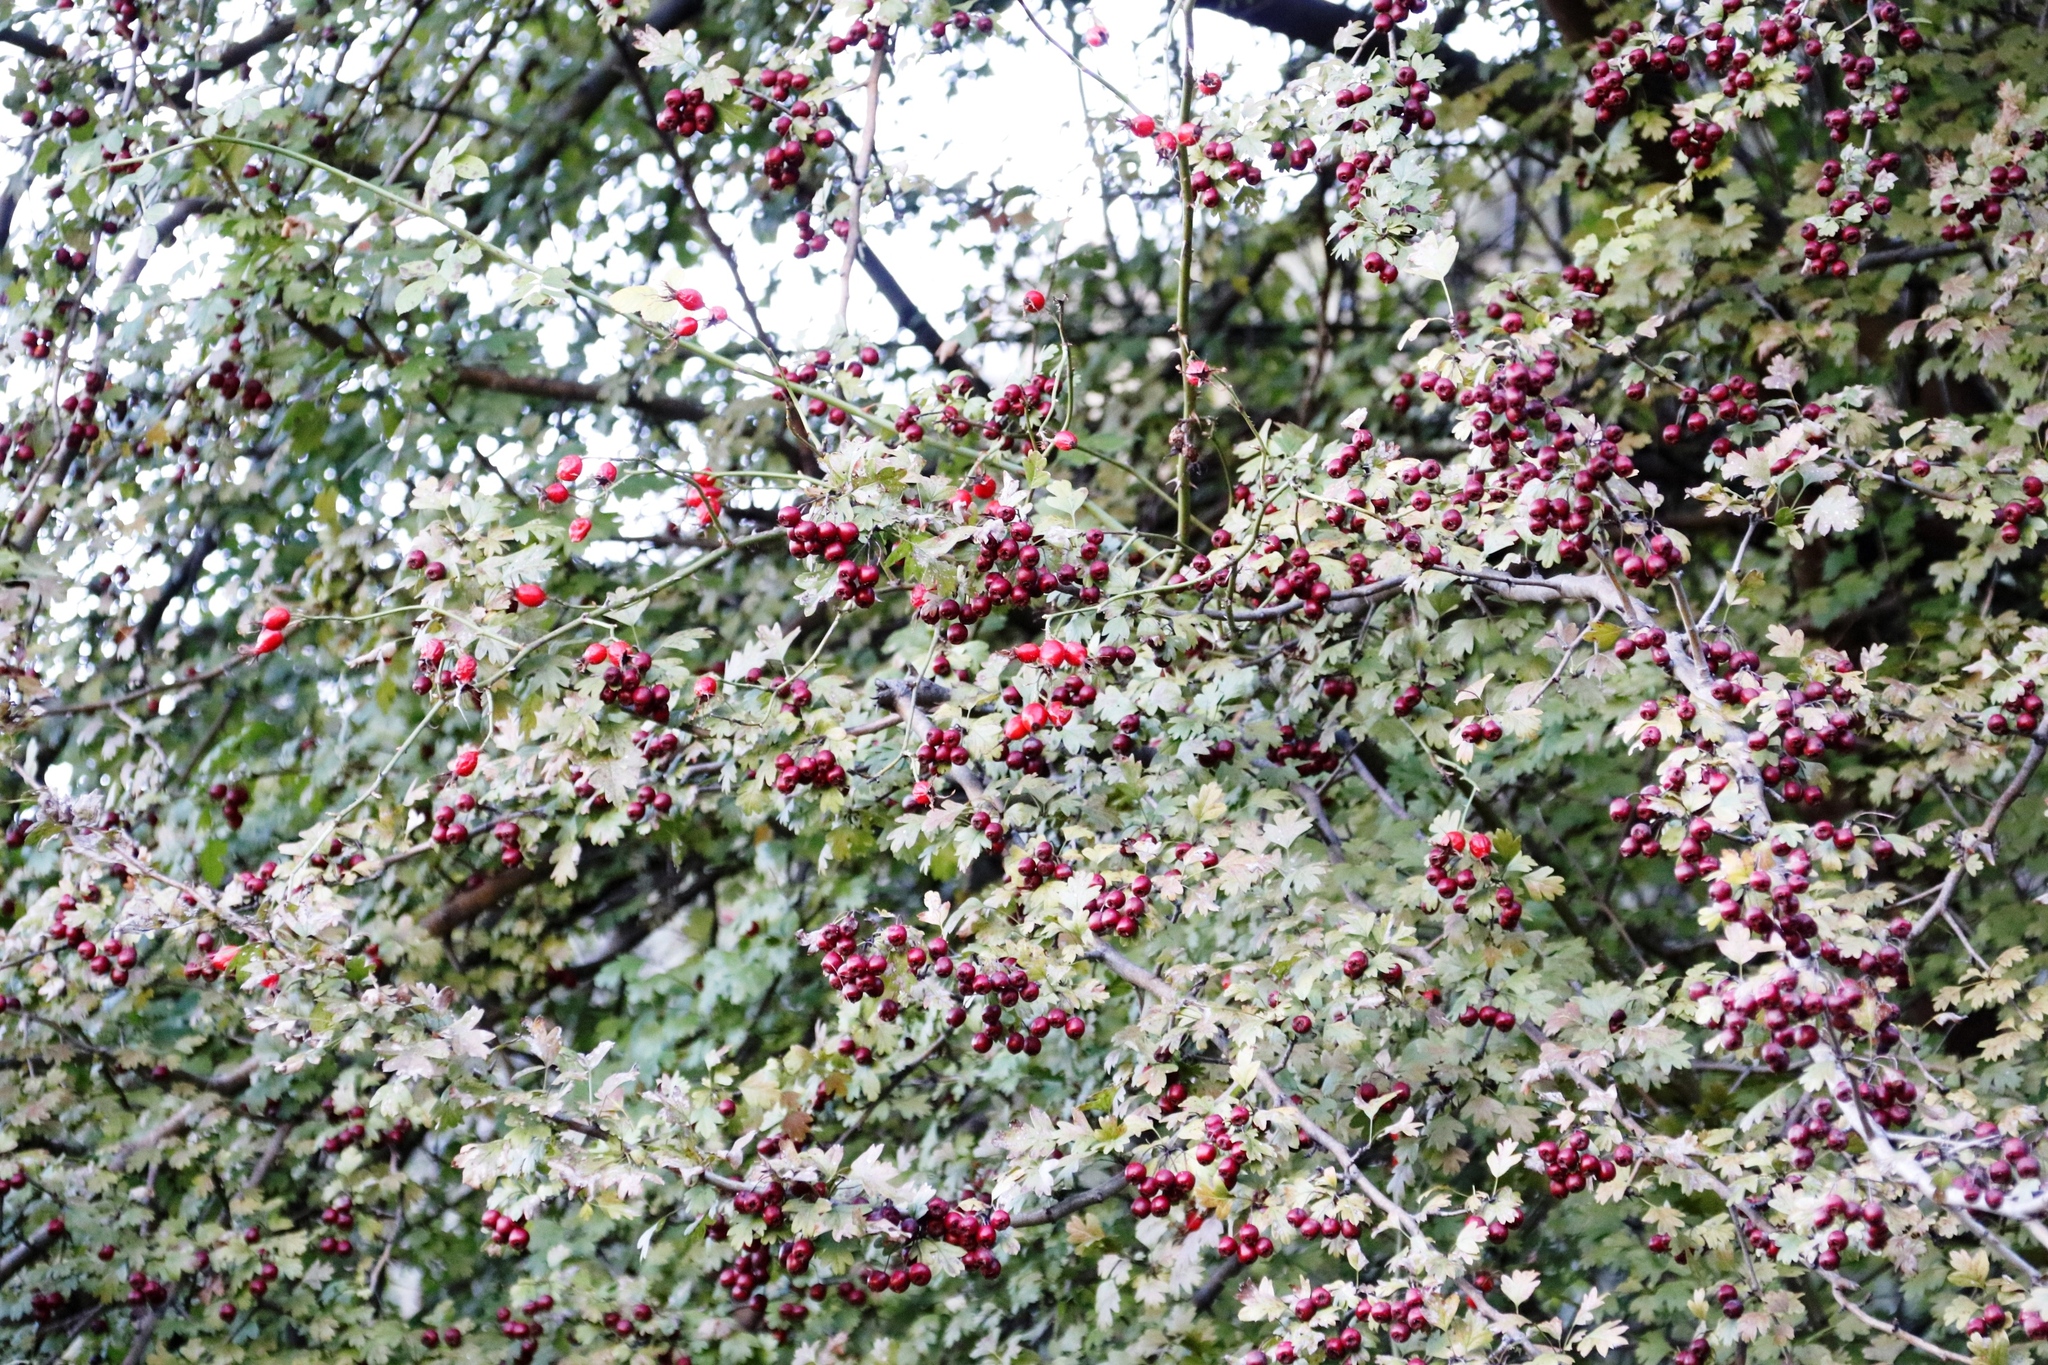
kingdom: Plantae
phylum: Tracheophyta
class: Magnoliopsida
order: Rosales
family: Rosaceae
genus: Crataegus
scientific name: Crataegus laevigata
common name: Midland hawthorn
